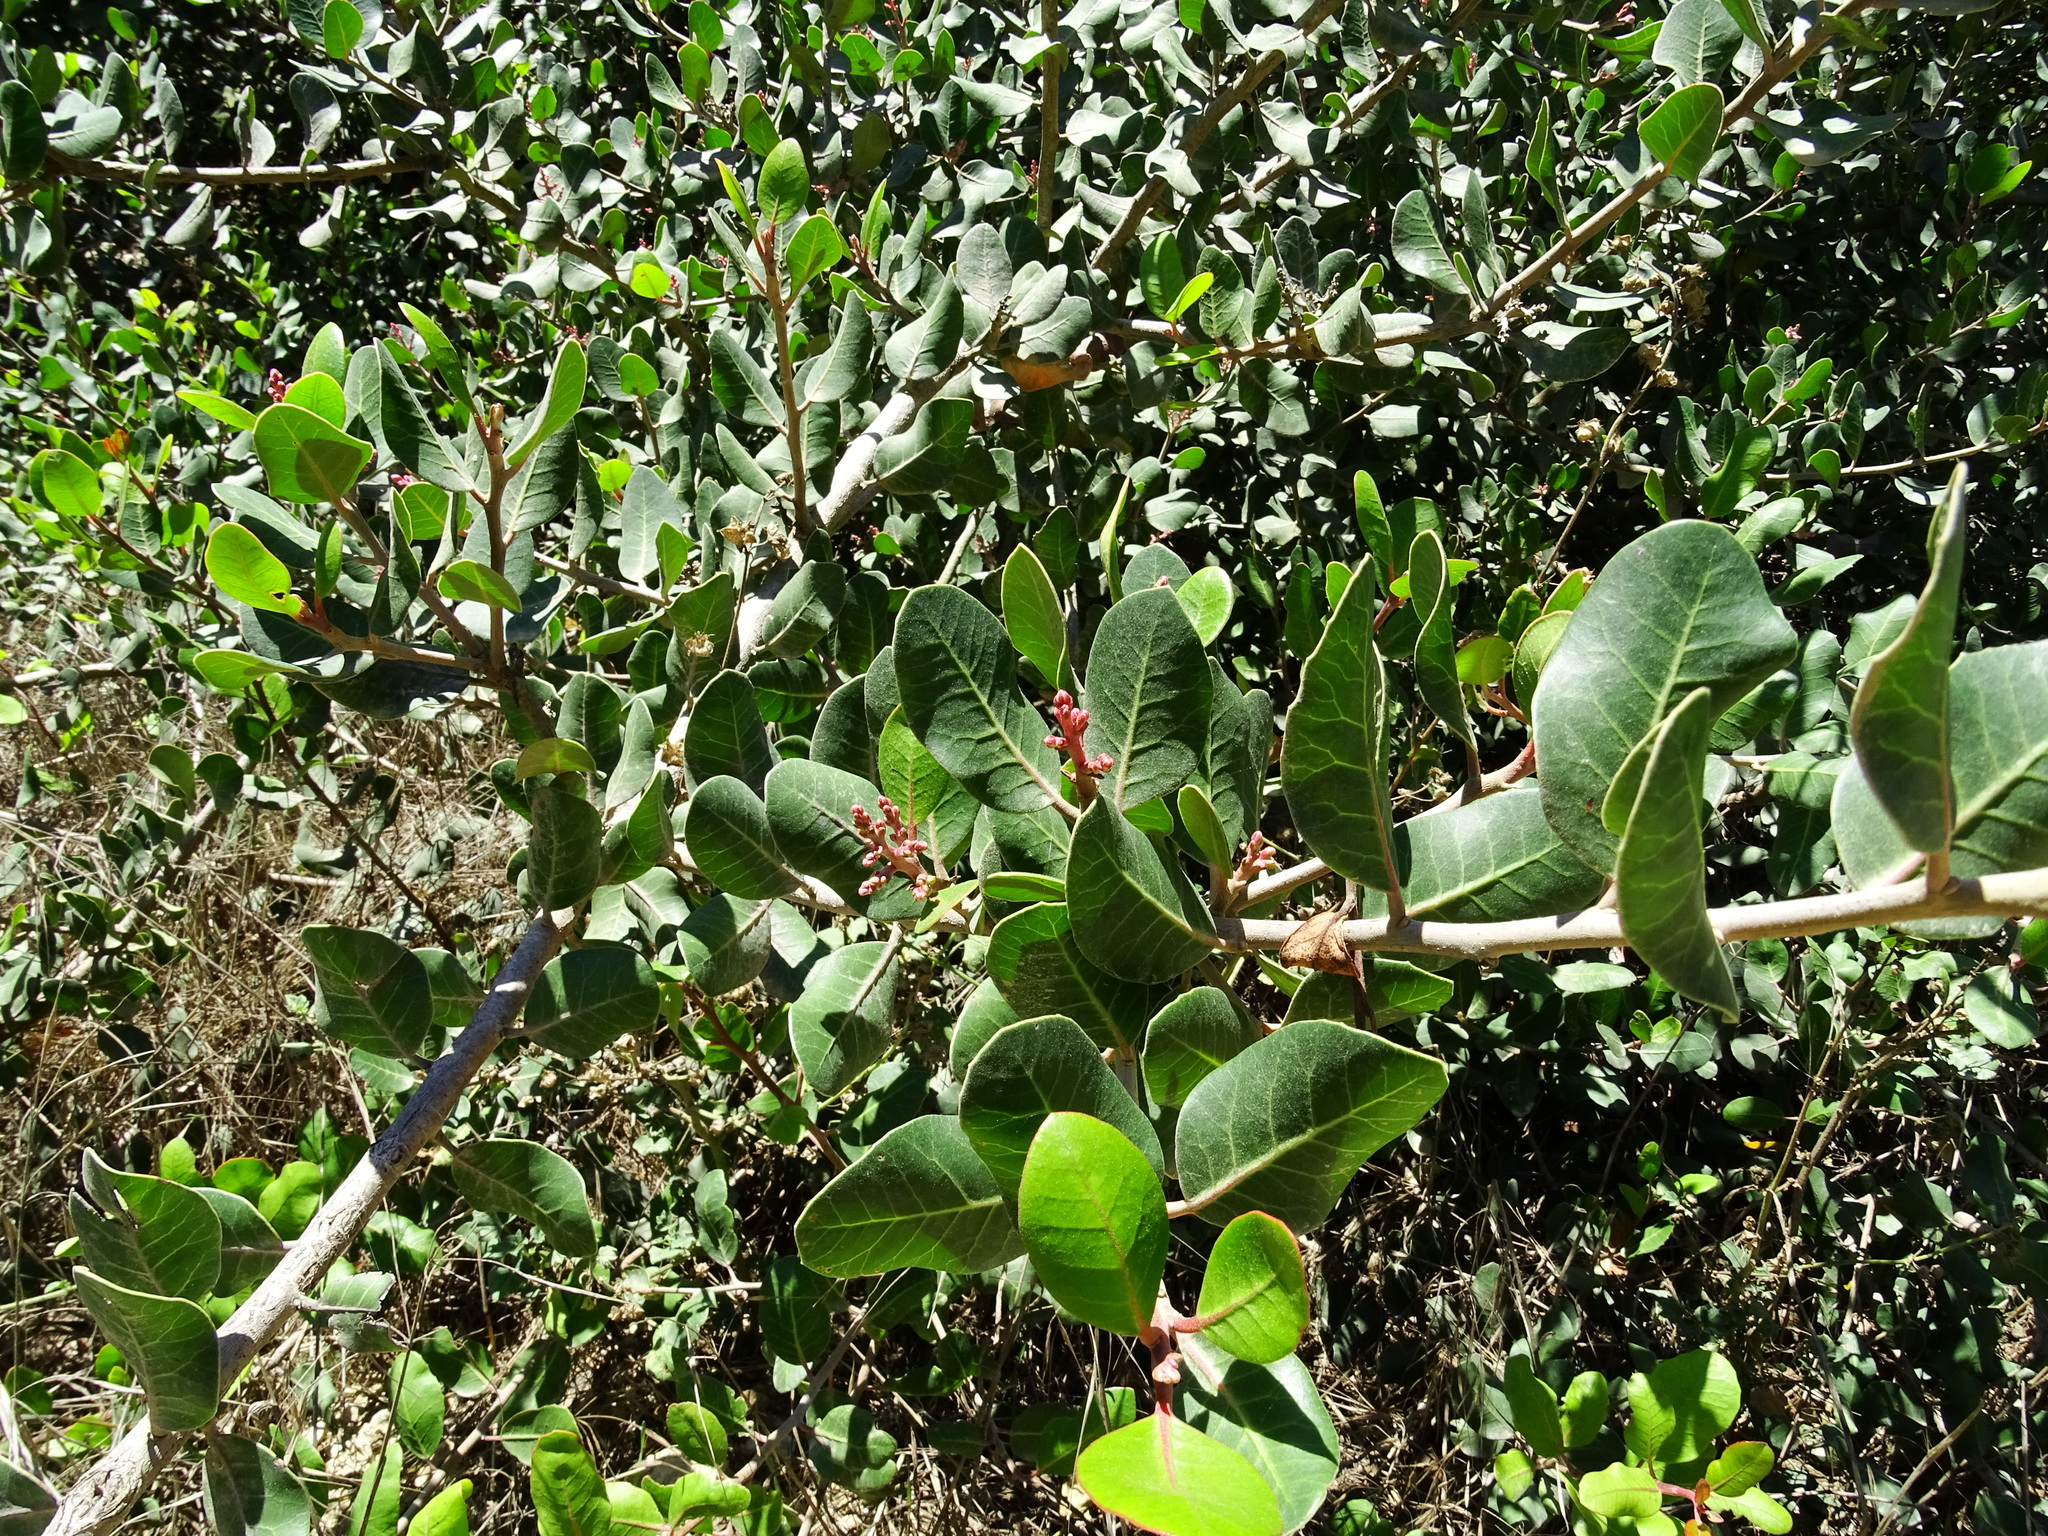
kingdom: Plantae
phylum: Tracheophyta
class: Magnoliopsida
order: Sapindales
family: Anacardiaceae
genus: Rhus
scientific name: Rhus integrifolia
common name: Lemonade sumac
